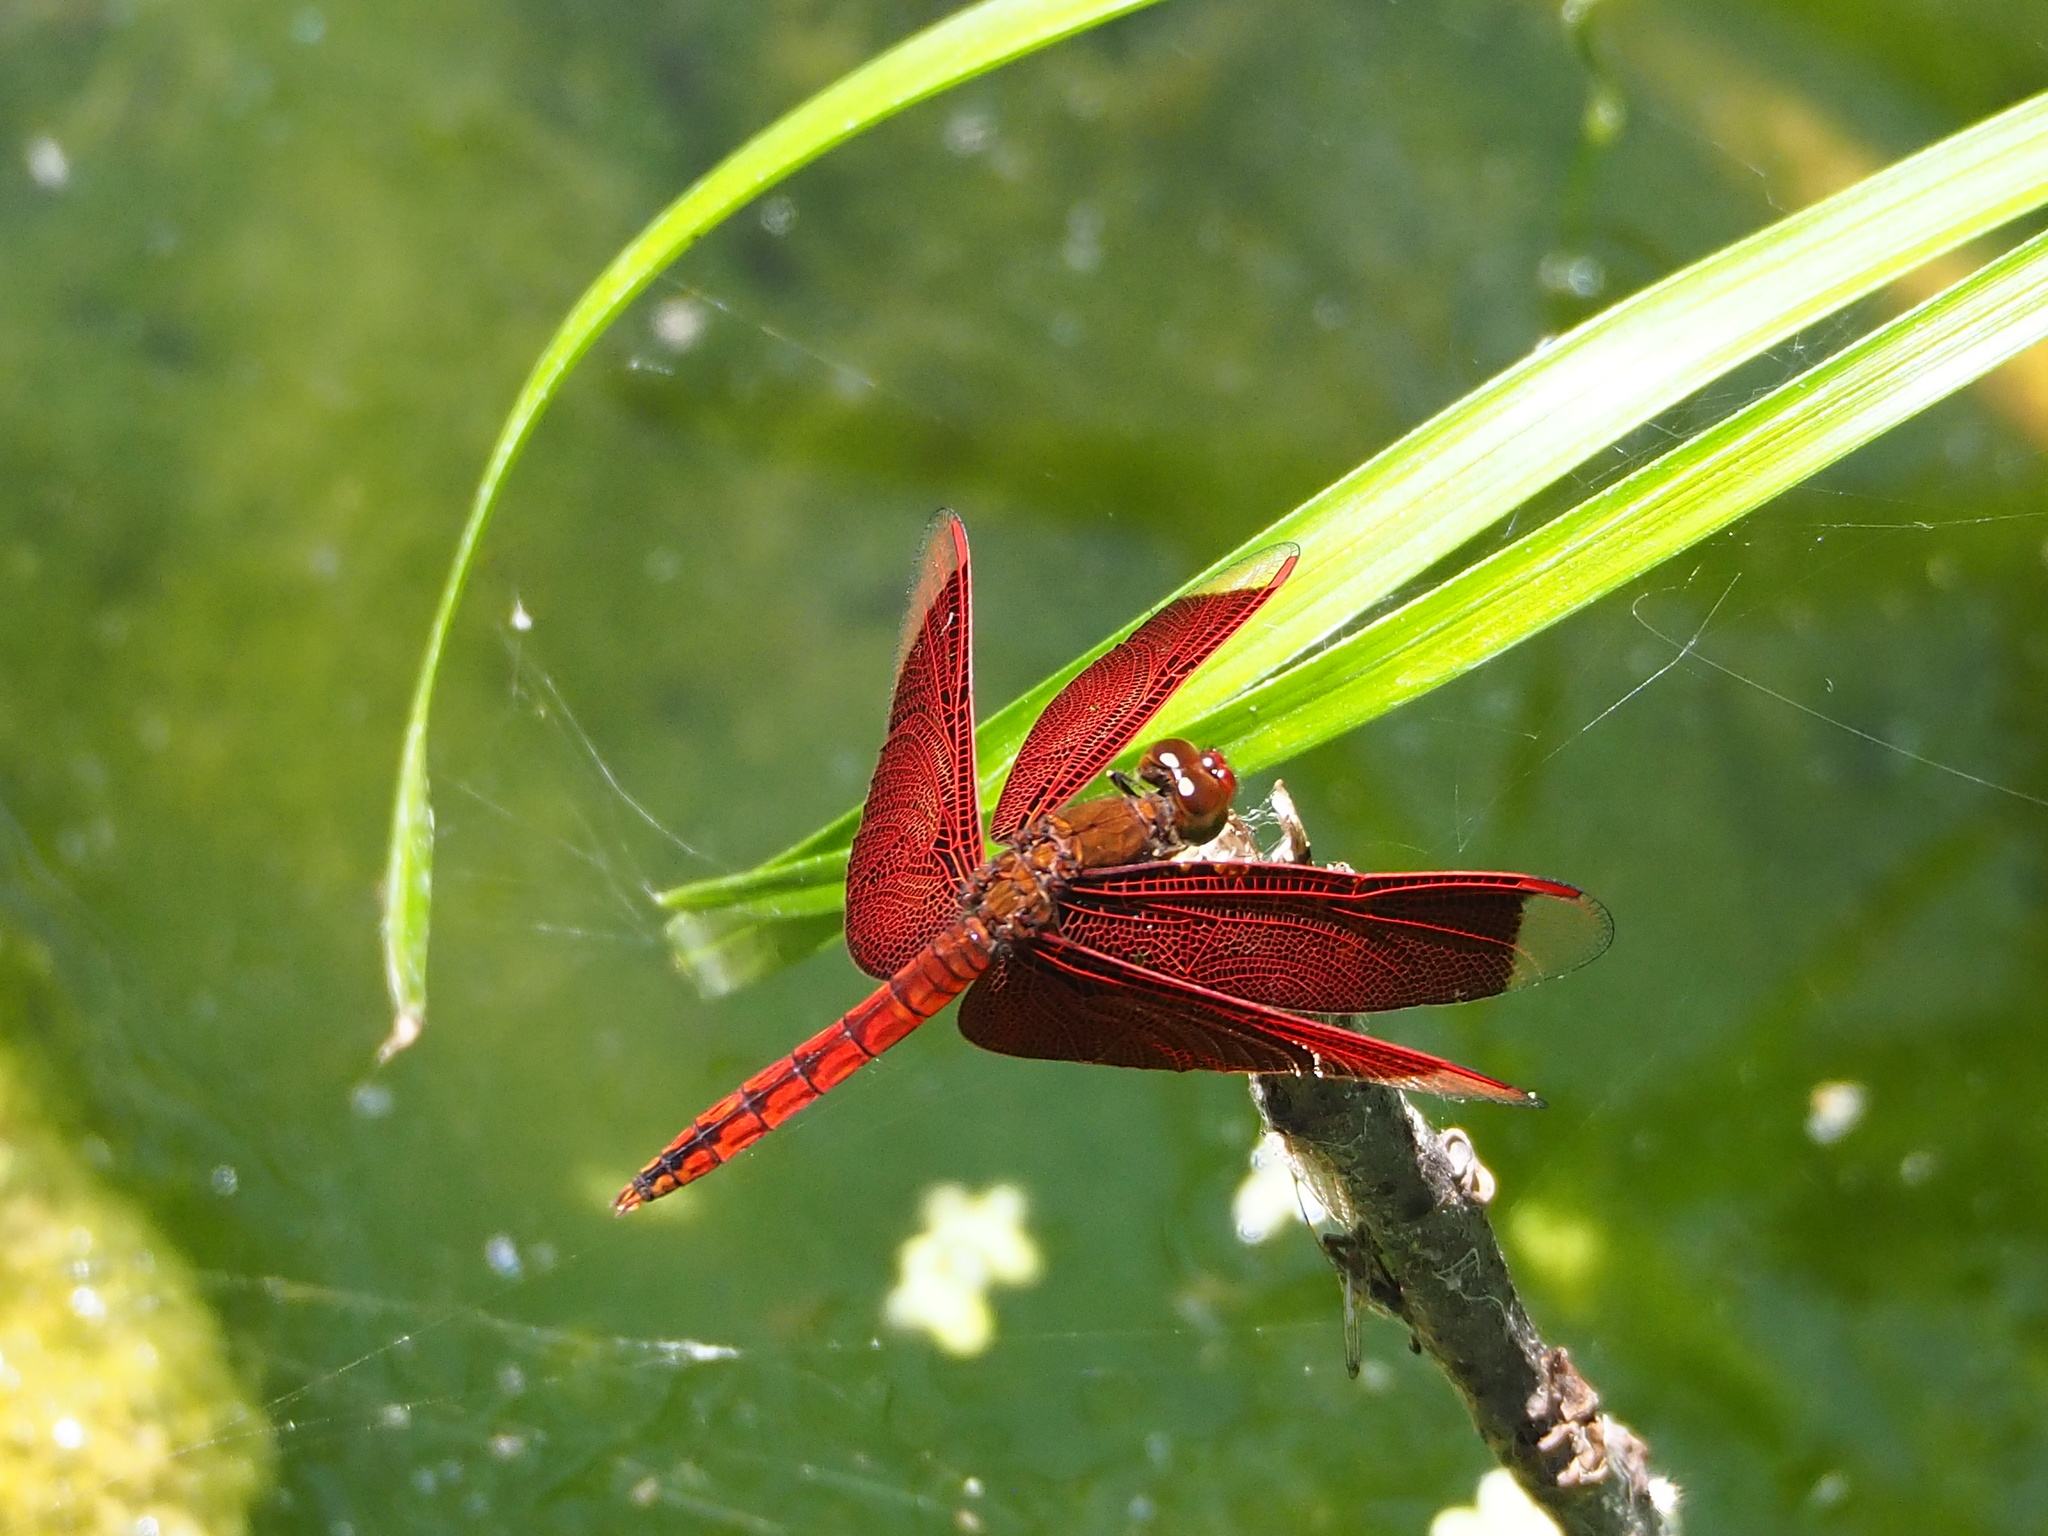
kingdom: Animalia
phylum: Arthropoda
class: Insecta
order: Odonata
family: Libellulidae
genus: Neurothemis
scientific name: Neurothemis taiwanensis
